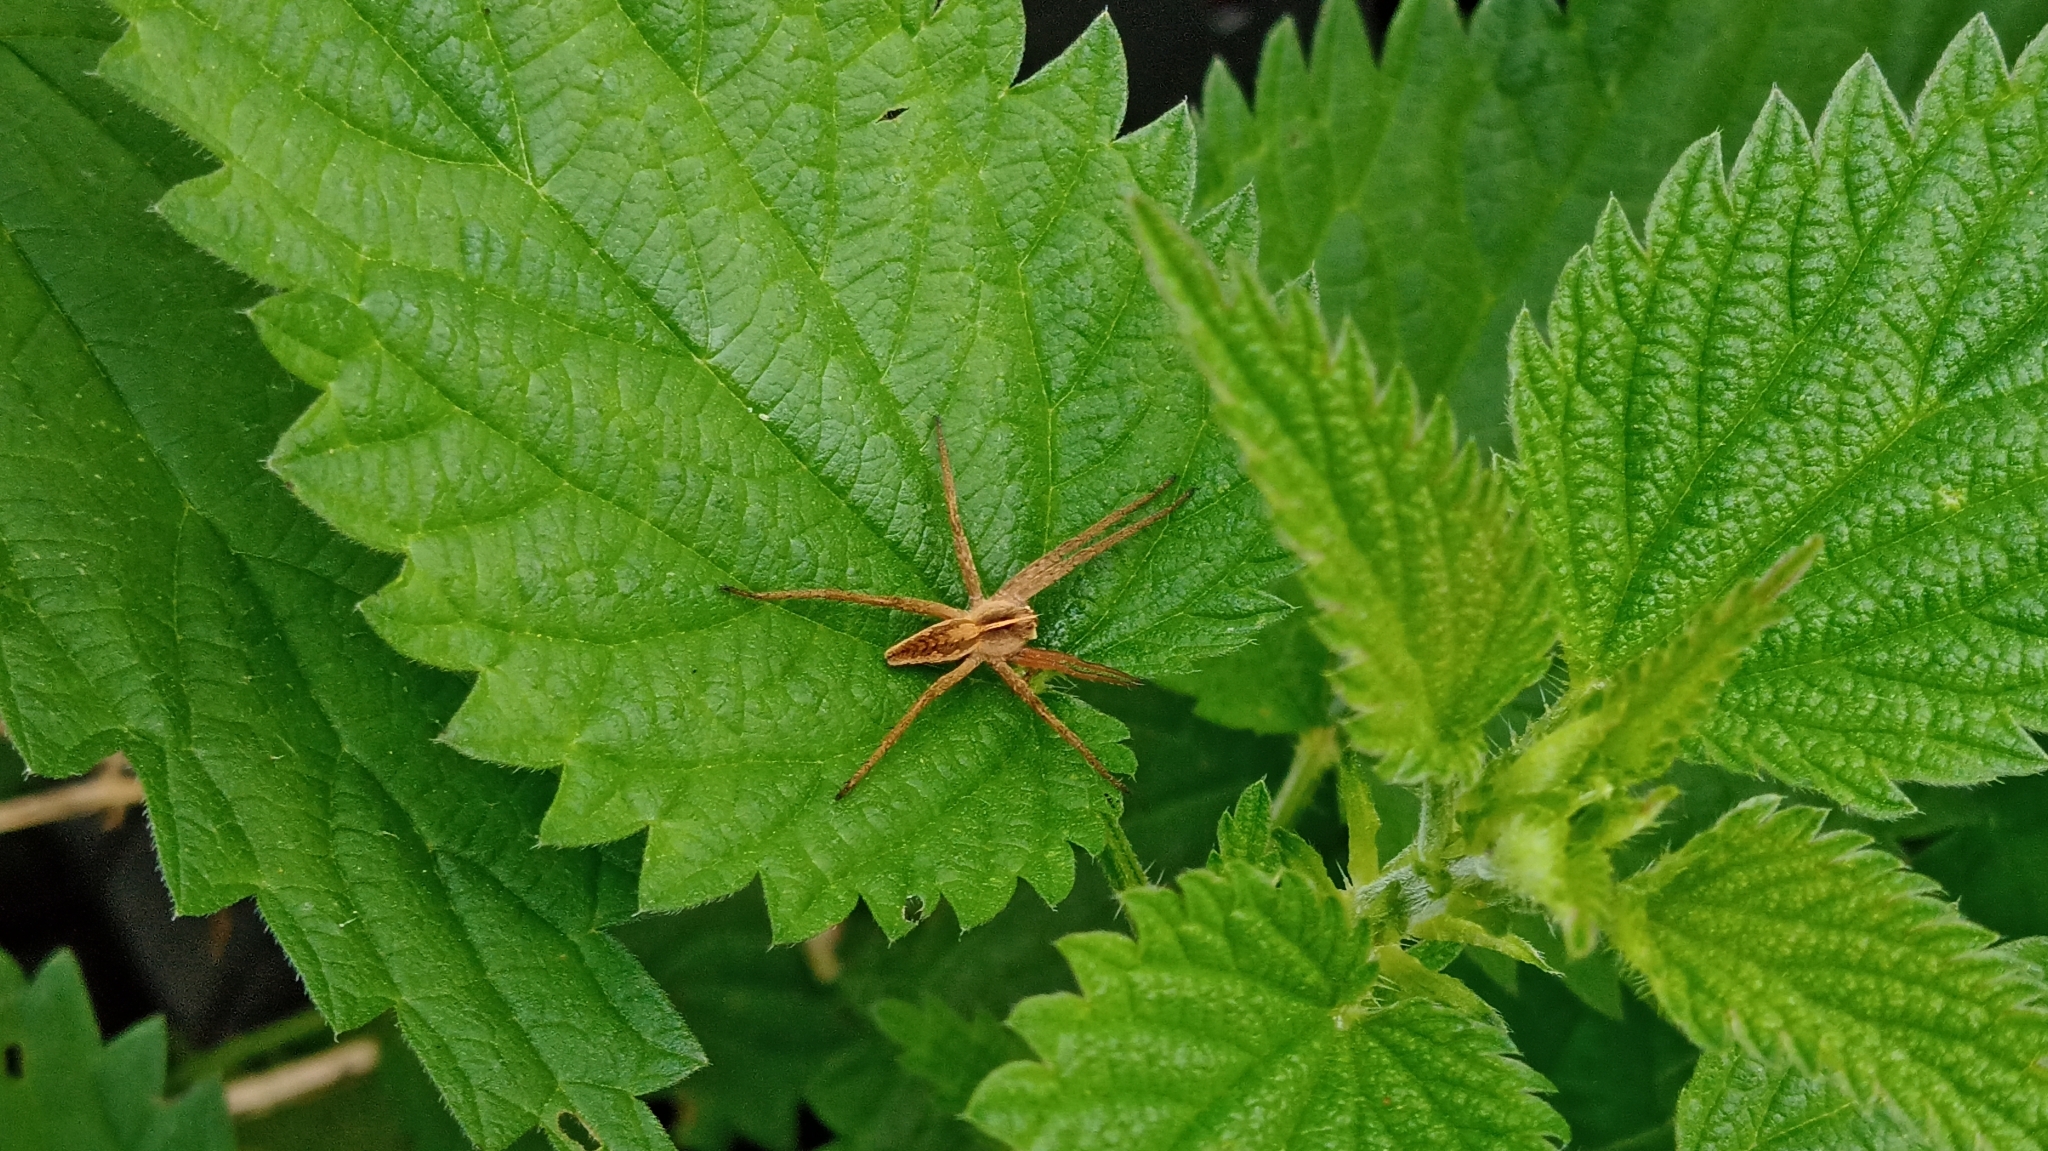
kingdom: Animalia
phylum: Arthropoda
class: Arachnida
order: Araneae
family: Pisauridae
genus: Pisaura
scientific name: Pisaura mirabilis
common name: Tent spider
